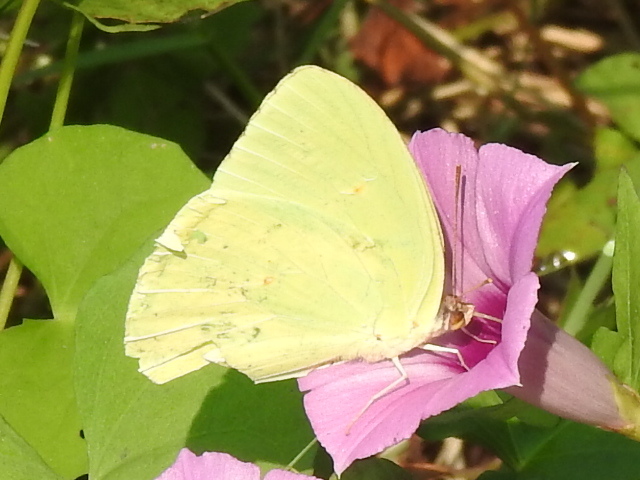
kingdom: Animalia
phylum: Arthropoda
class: Insecta
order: Lepidoptera
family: Pieridae
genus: Phoebis
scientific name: Phoebis sennae
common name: Cloudless sulphur
